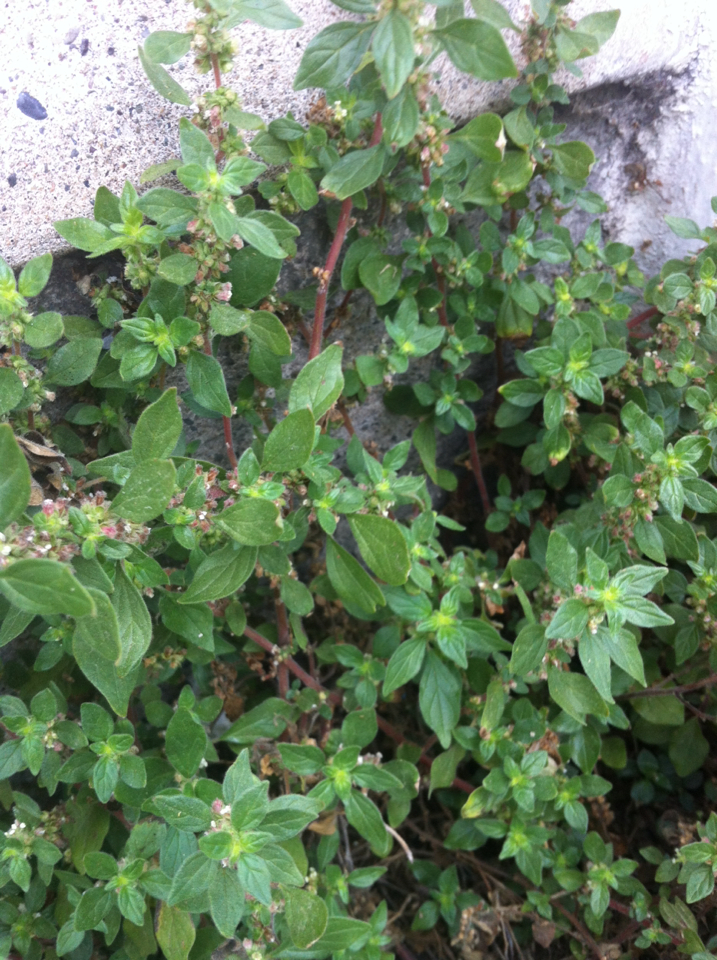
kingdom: Plantae
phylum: Tracheophyta
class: Magnoliopsida
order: Rosales
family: Urticaceae
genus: Parietaria
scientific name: Parietaria judaica
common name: Pellitory-of-the-wall
